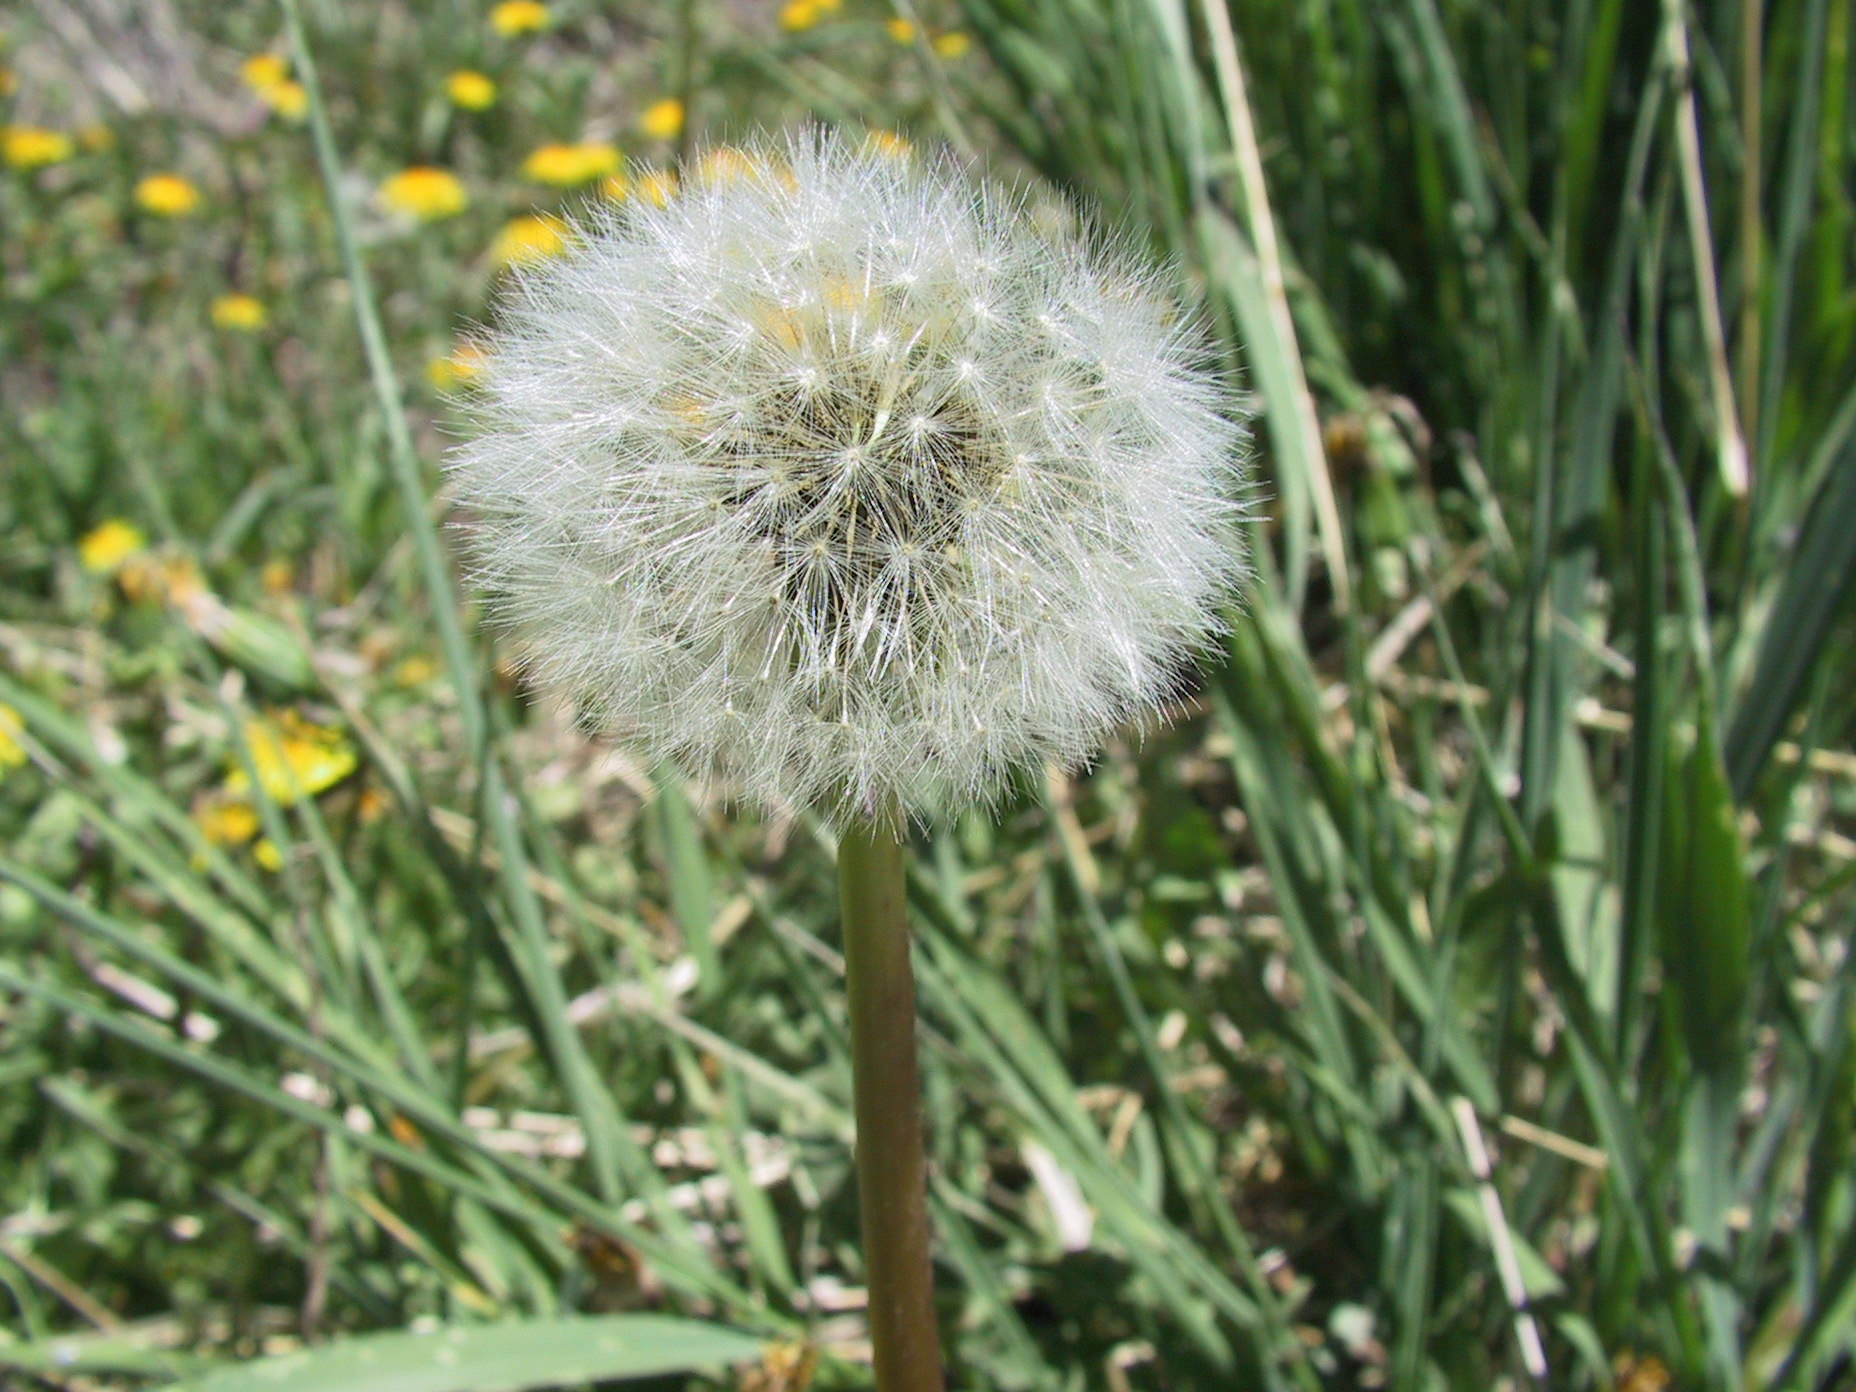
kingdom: Plantae
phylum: Tracheophyta
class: Magnoliopsida
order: Asterales
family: Asteraceae
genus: Taraxacum
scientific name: Taraxacum officinale
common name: Common dandelion
